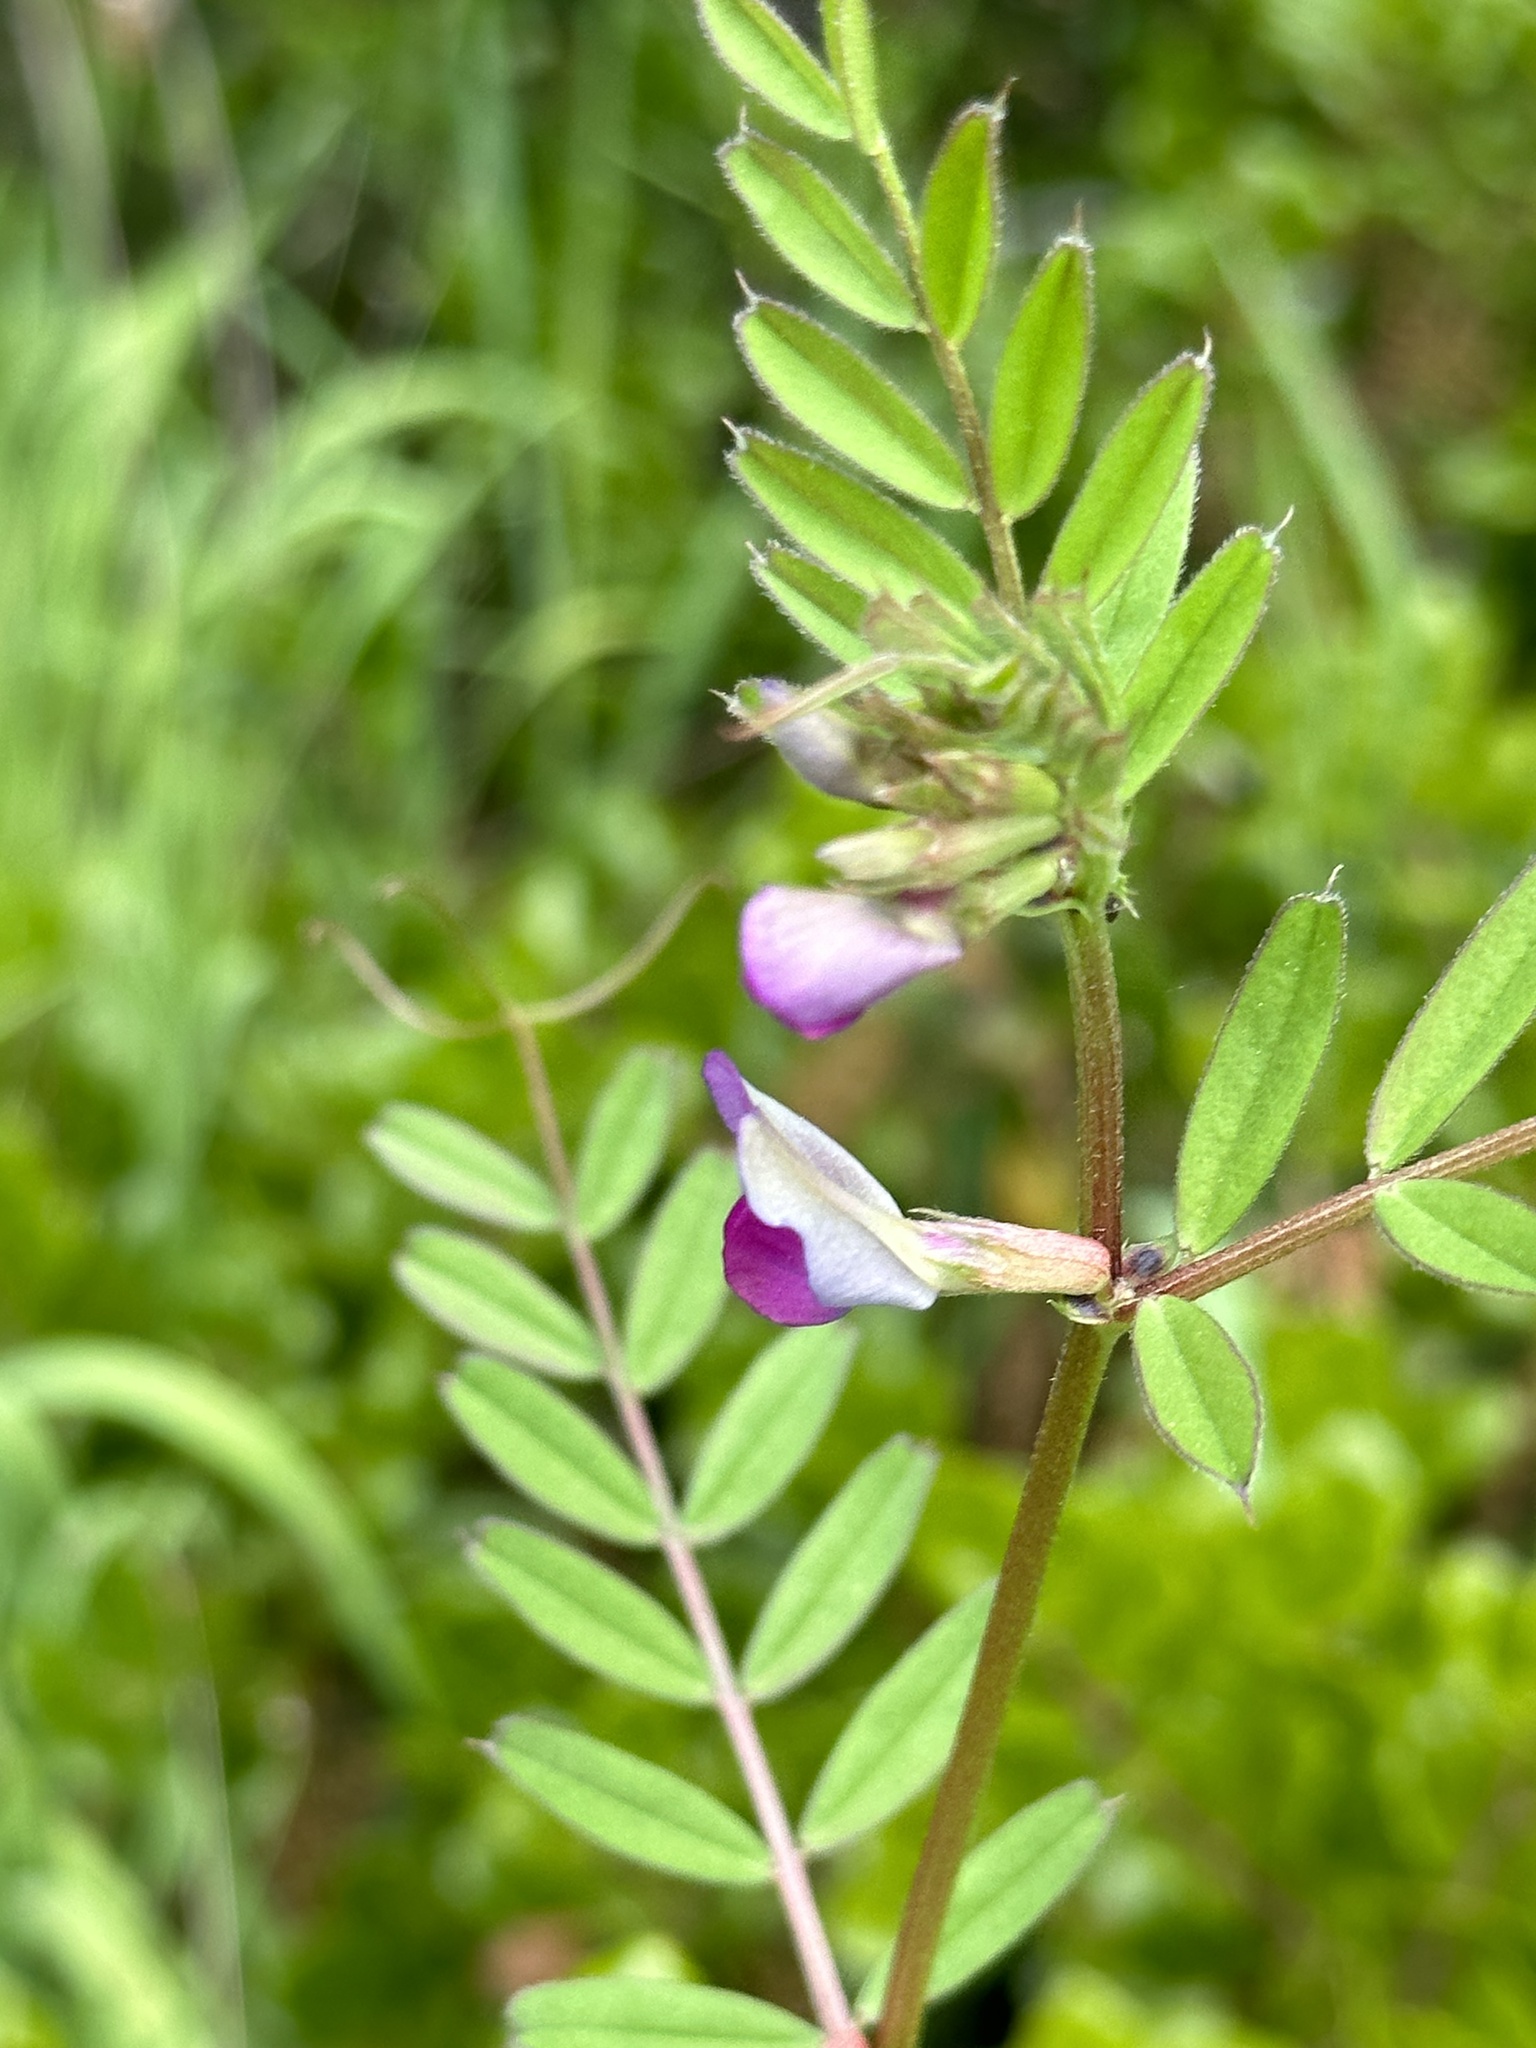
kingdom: Plantae
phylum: Tracheophyta
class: Magnoliopsida
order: Fabales
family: Fabaceae
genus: Vicia
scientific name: Vicia sativa
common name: Garden vetch
